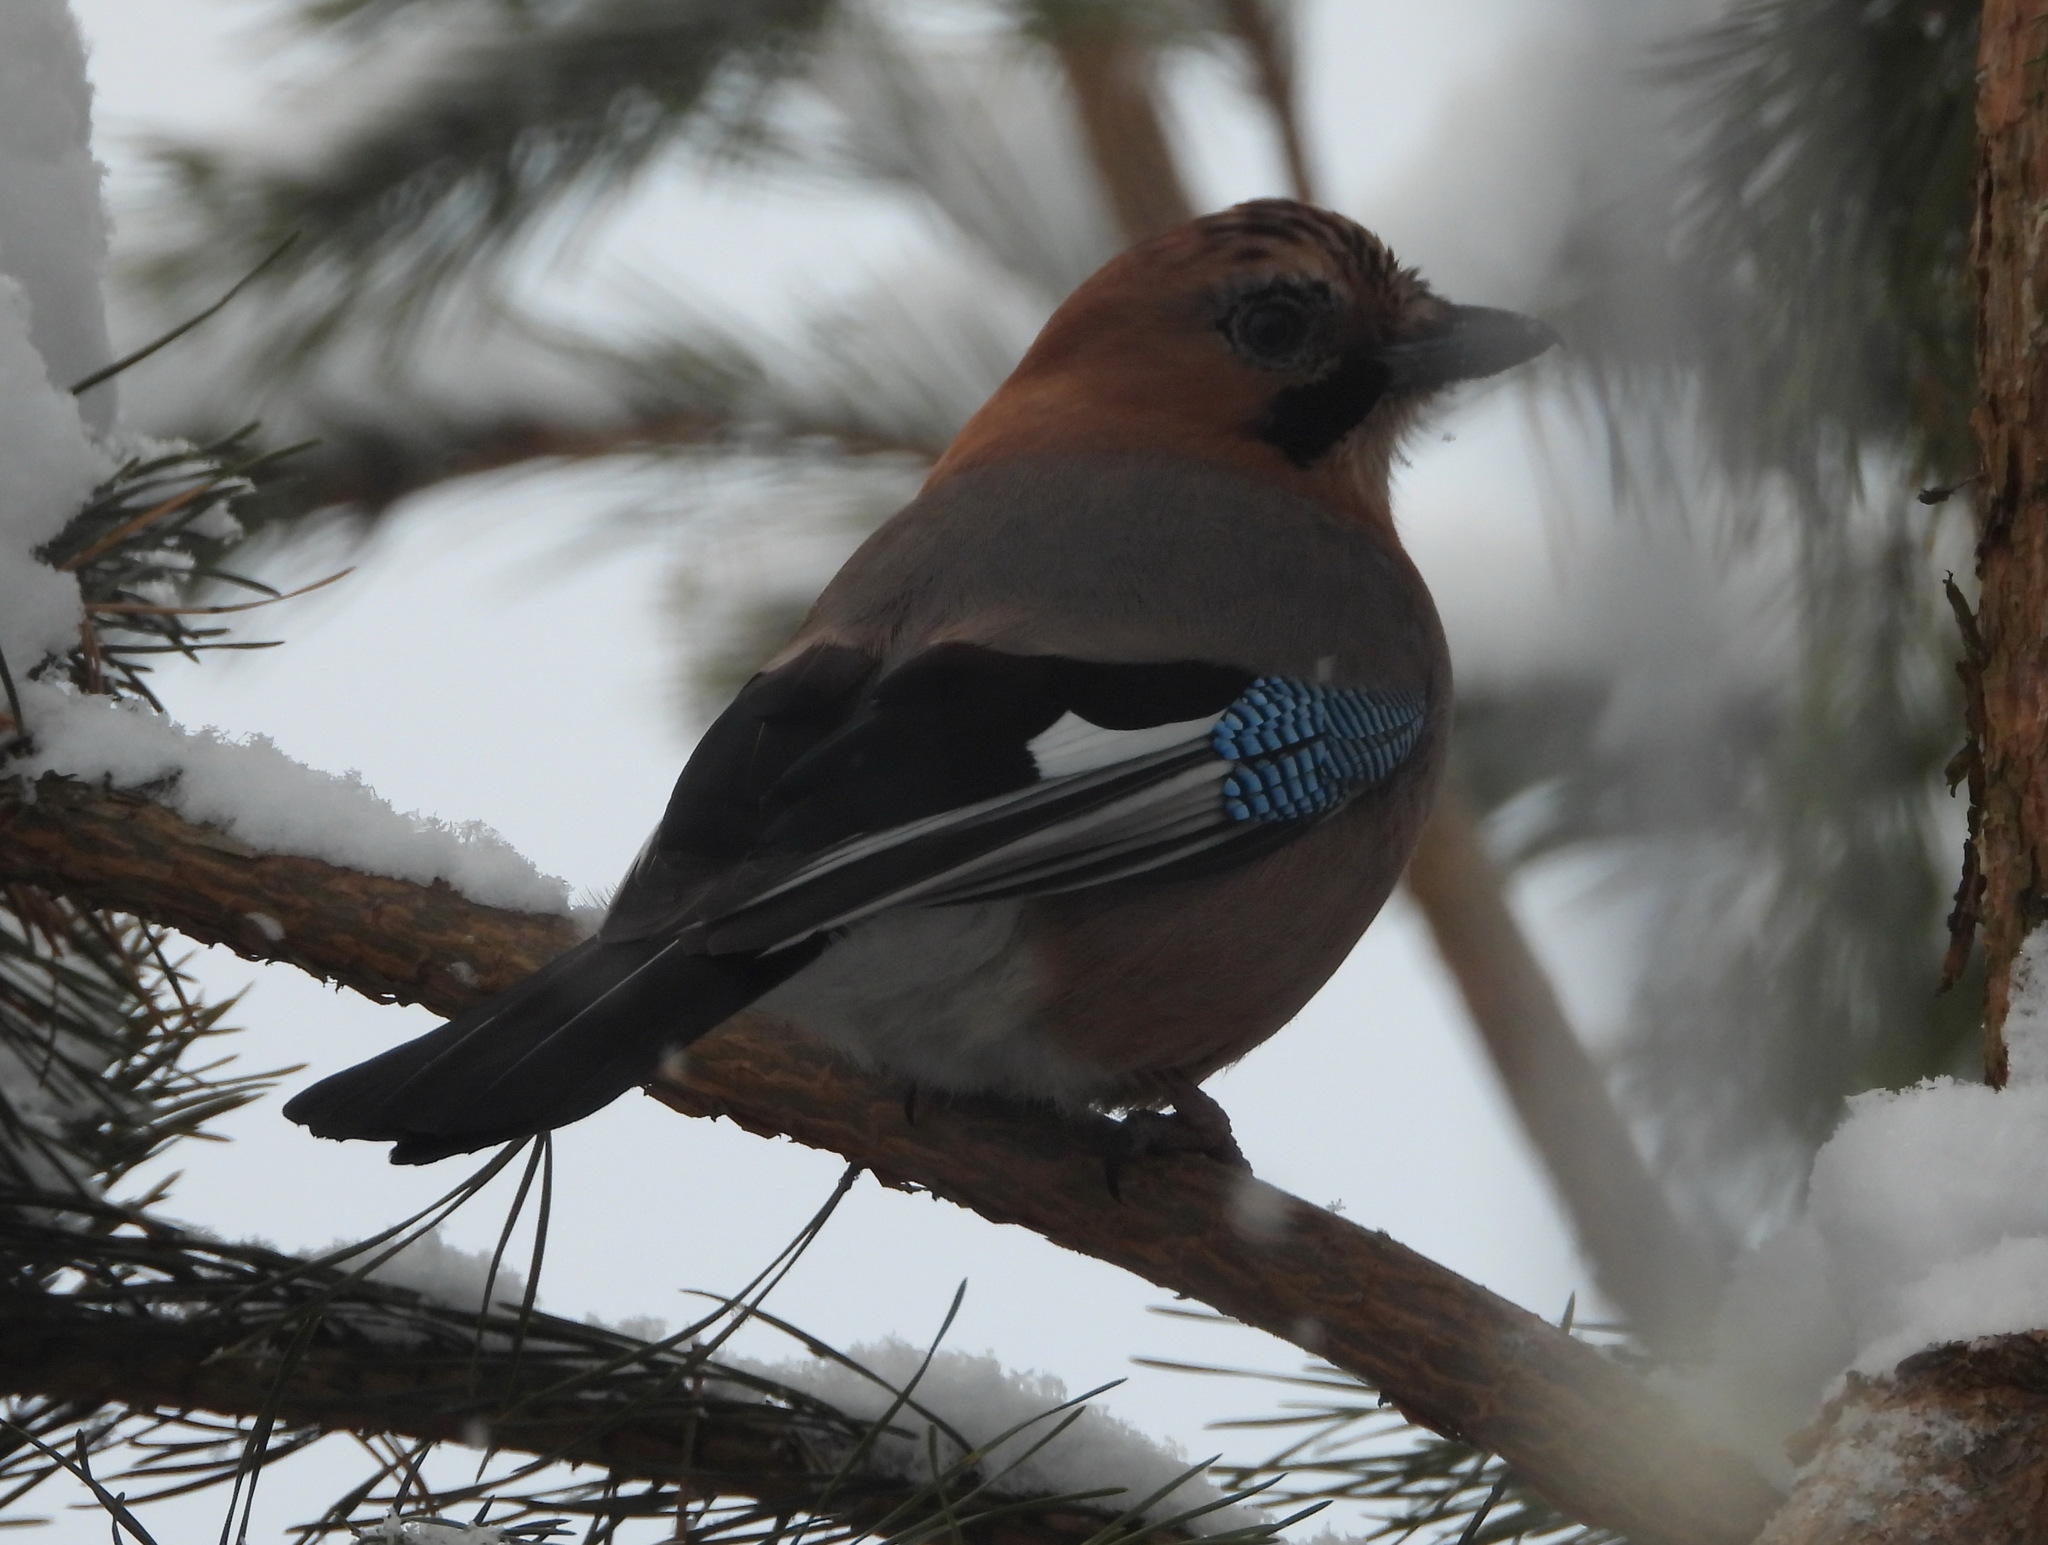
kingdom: Animalia
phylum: Chordata
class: Aves
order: Passeriformes
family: Corvidae
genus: Garrulus
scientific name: Garrulus glandarius
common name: Eurasian jay
